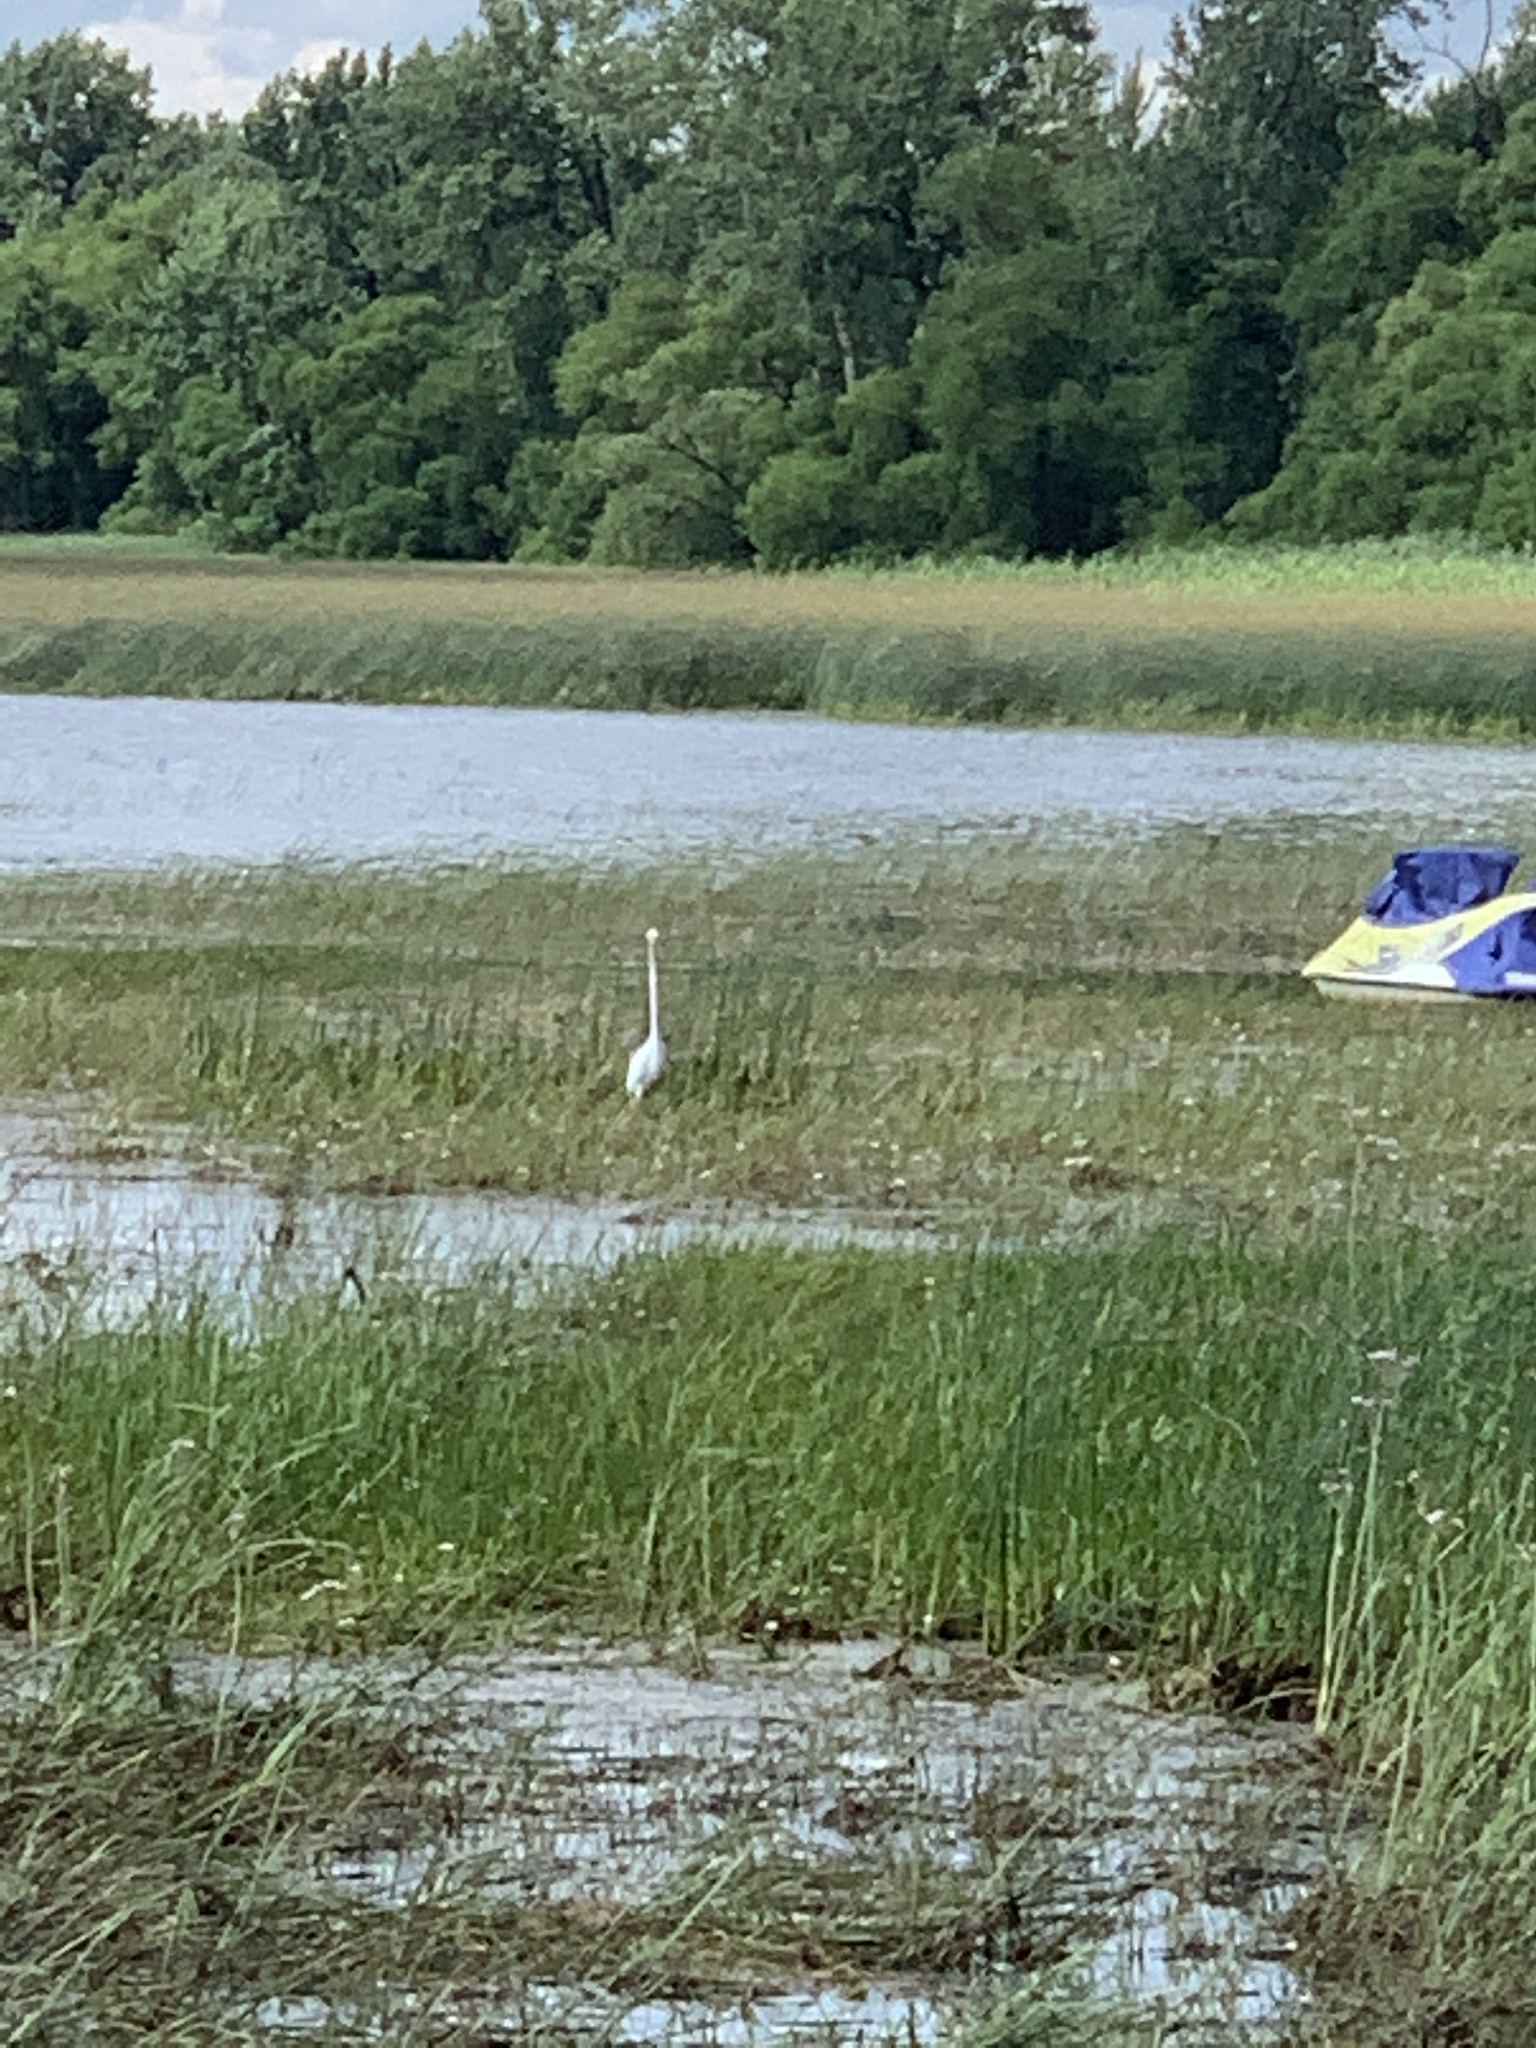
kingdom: Animalia
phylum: Chordata
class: Aves
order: Pelecaniformes
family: Ardeidae
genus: Ardea
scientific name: Ardea alba
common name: Great egret
